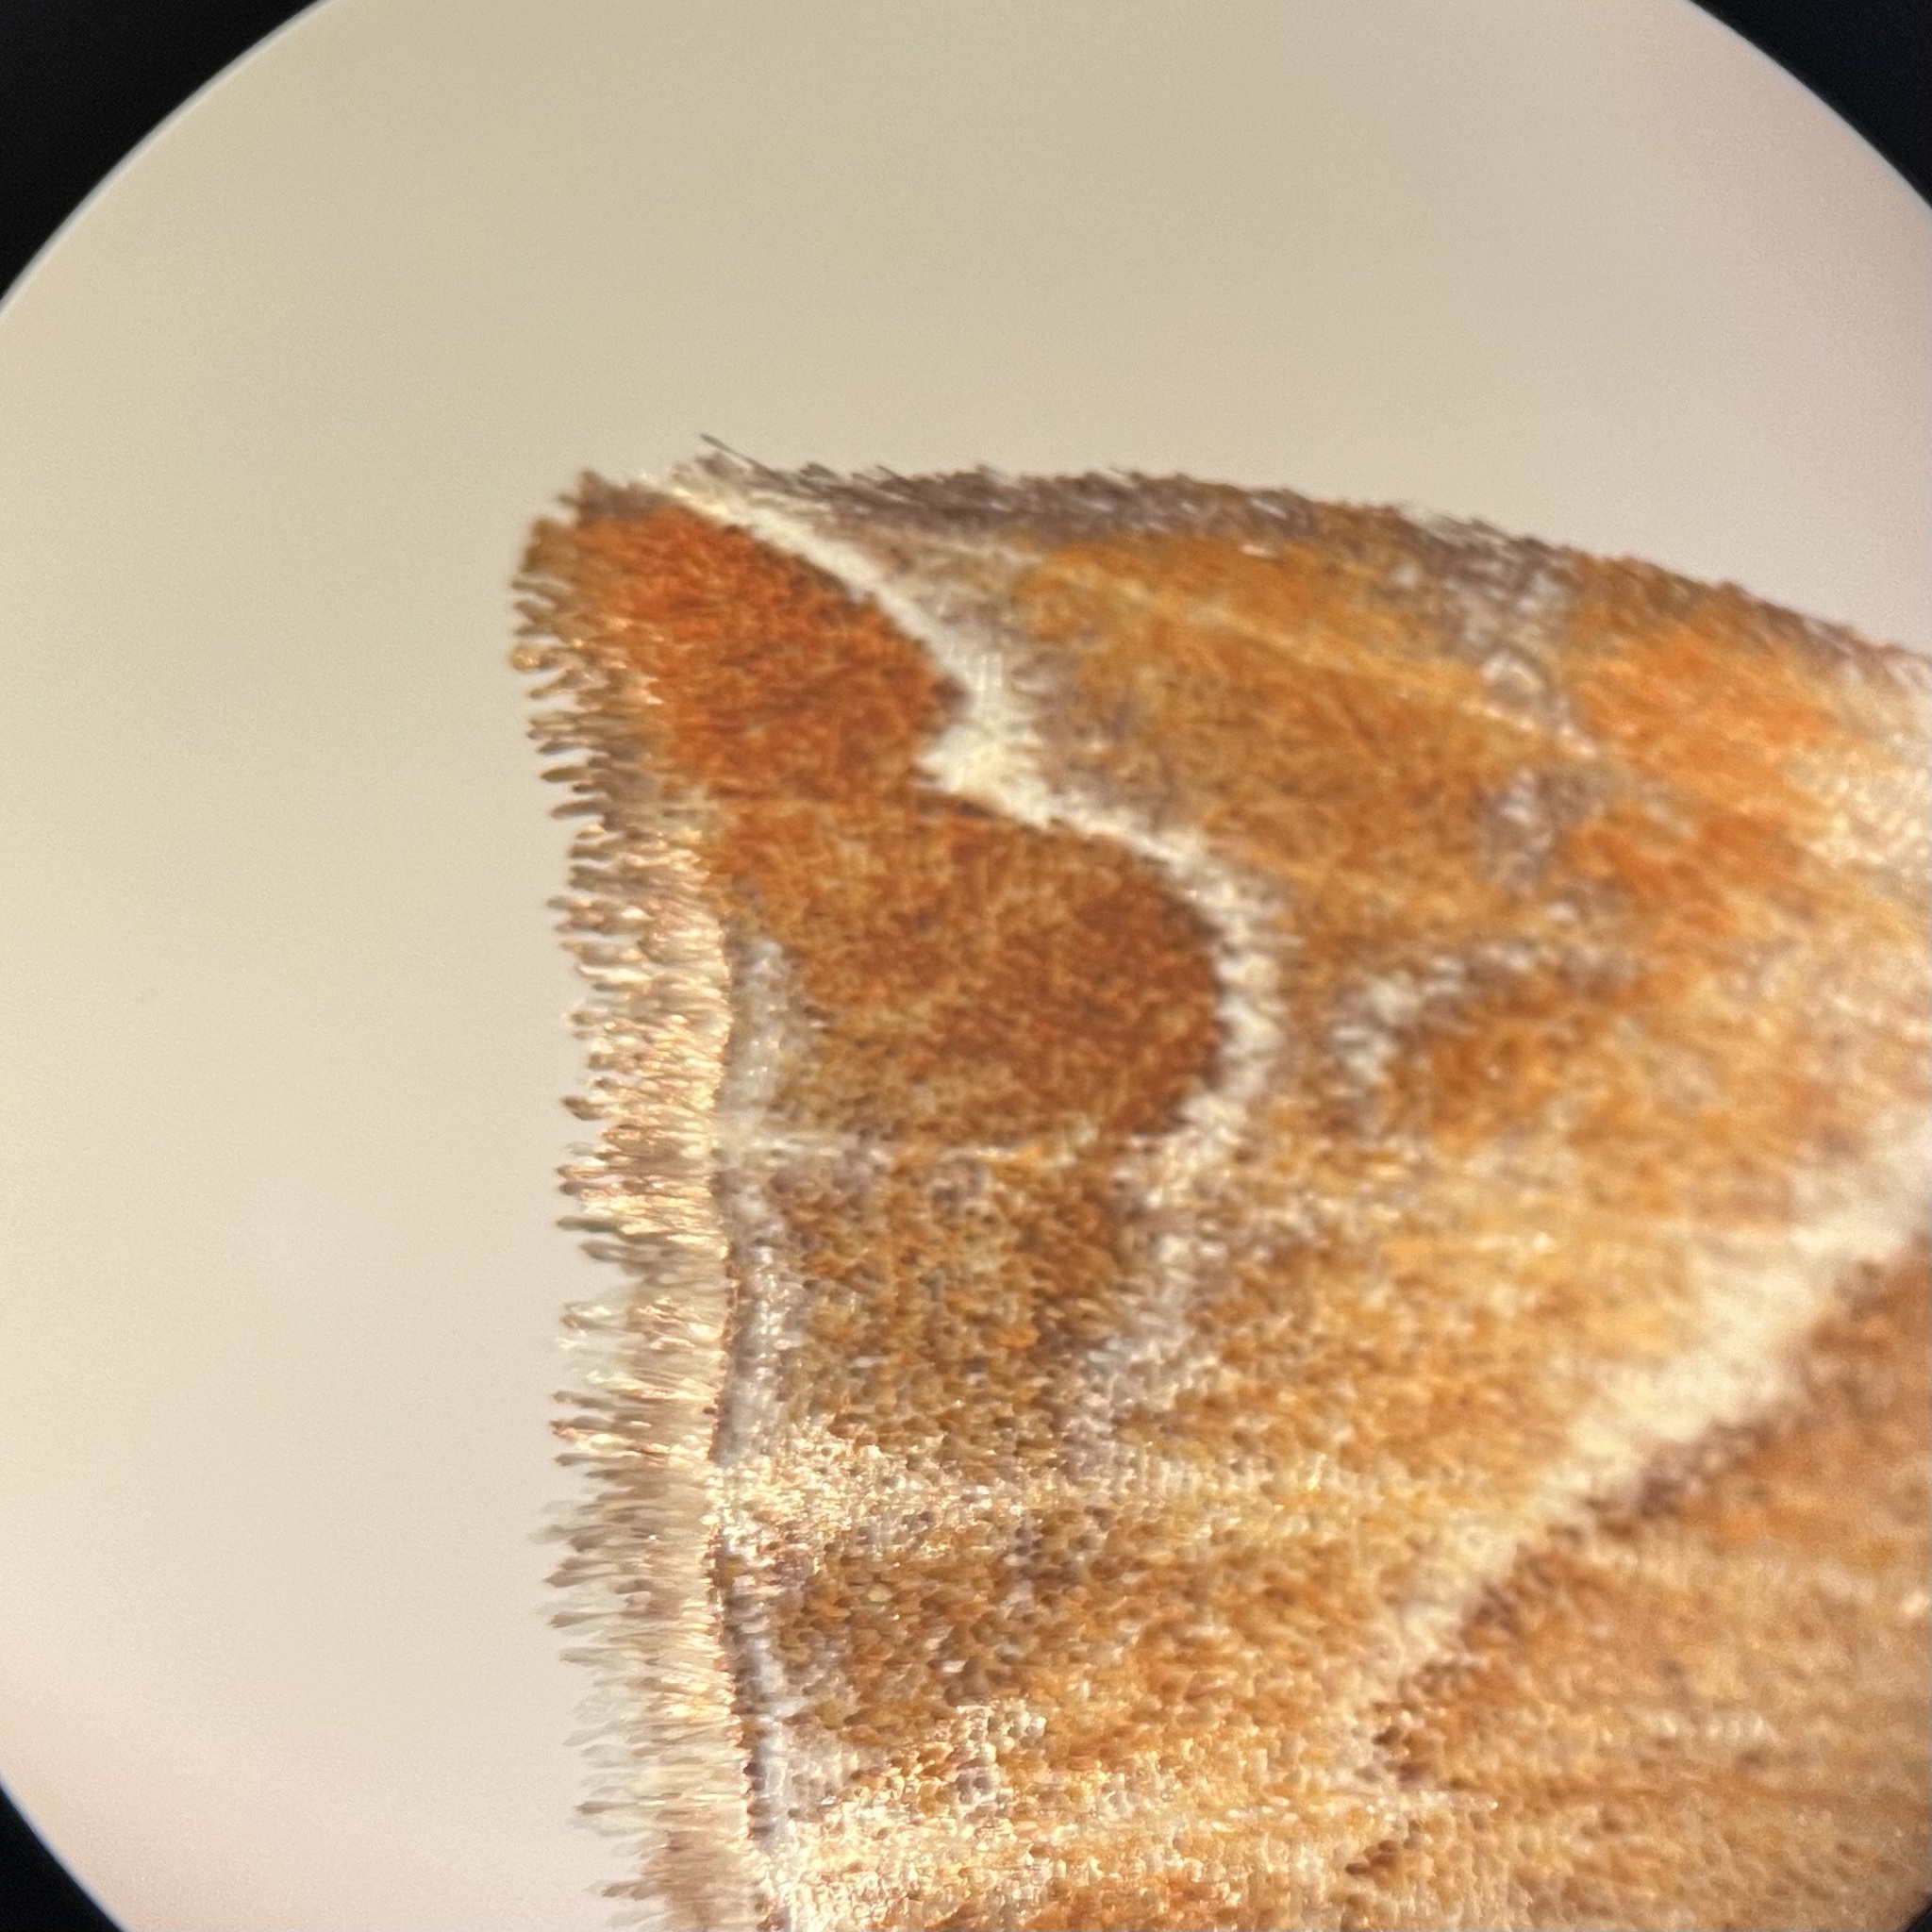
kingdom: Animalia
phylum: Arthropoda
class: Insecta
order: Lepidoptera
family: Geometridae
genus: Eulithis
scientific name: Eulithis molliculata
